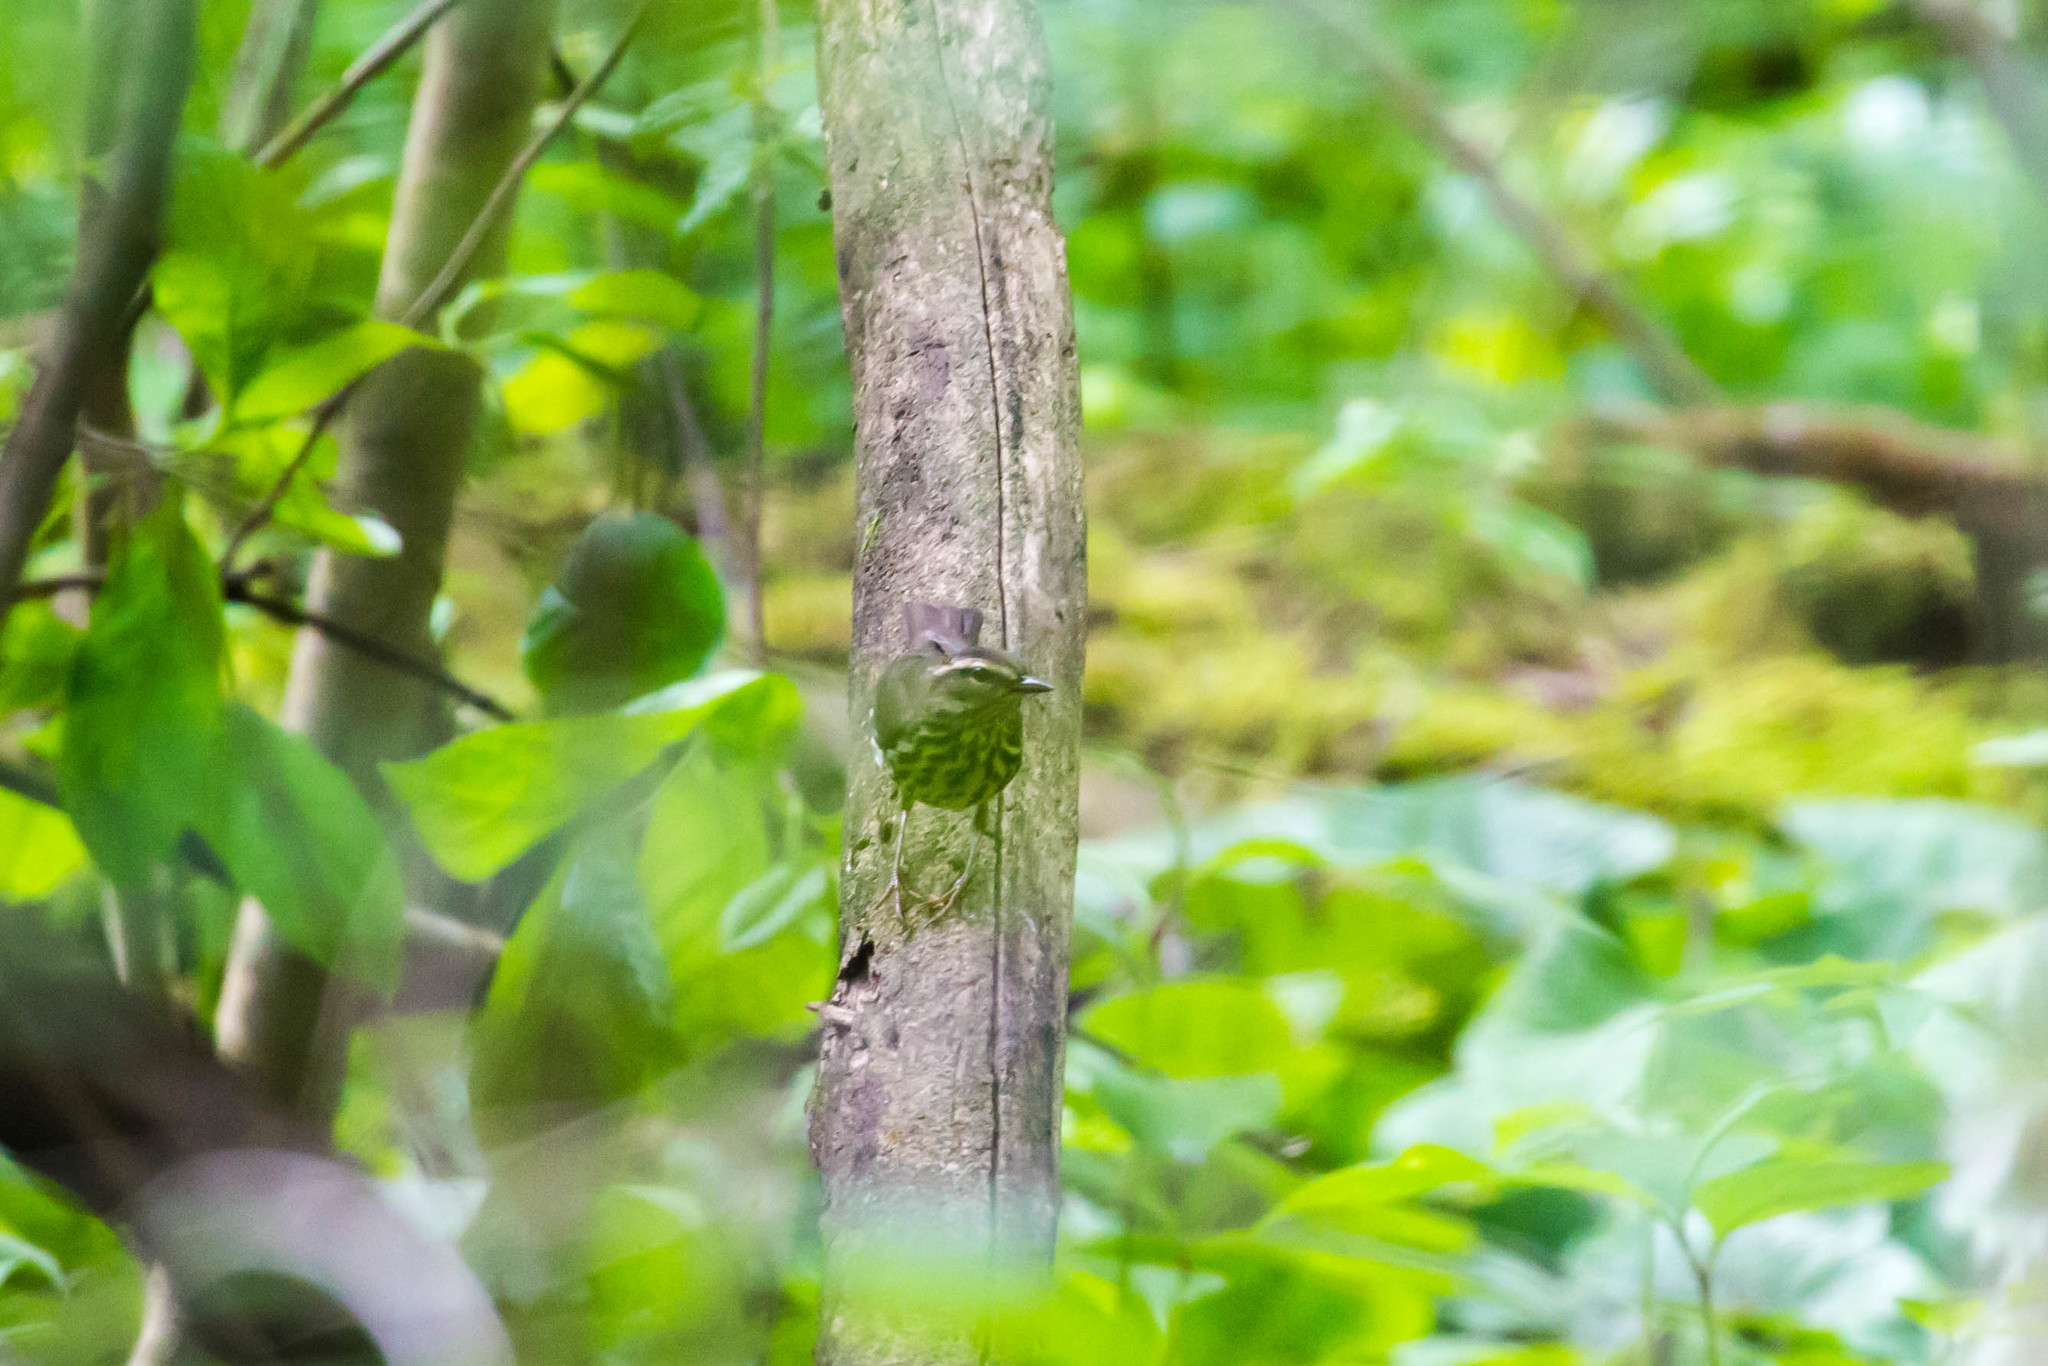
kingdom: Animalia
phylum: Chordata
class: Aves
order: Passeriformes
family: Parulidae
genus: Parkesia
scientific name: Parkesia noveboracensis
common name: Northern waterthrush
